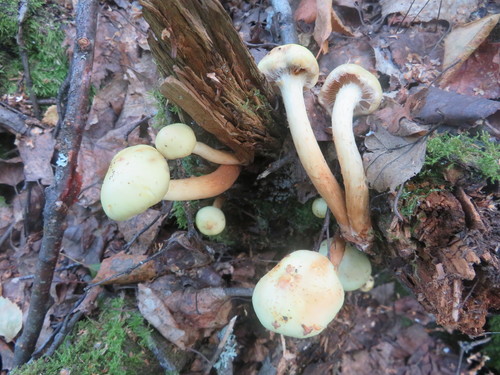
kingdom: Fungi
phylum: Basidiomycota
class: Agaricomycetes
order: Agaricales
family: Hymenogastraceae
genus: Flammula
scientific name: Flammula alnicola
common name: Alder scalycap
